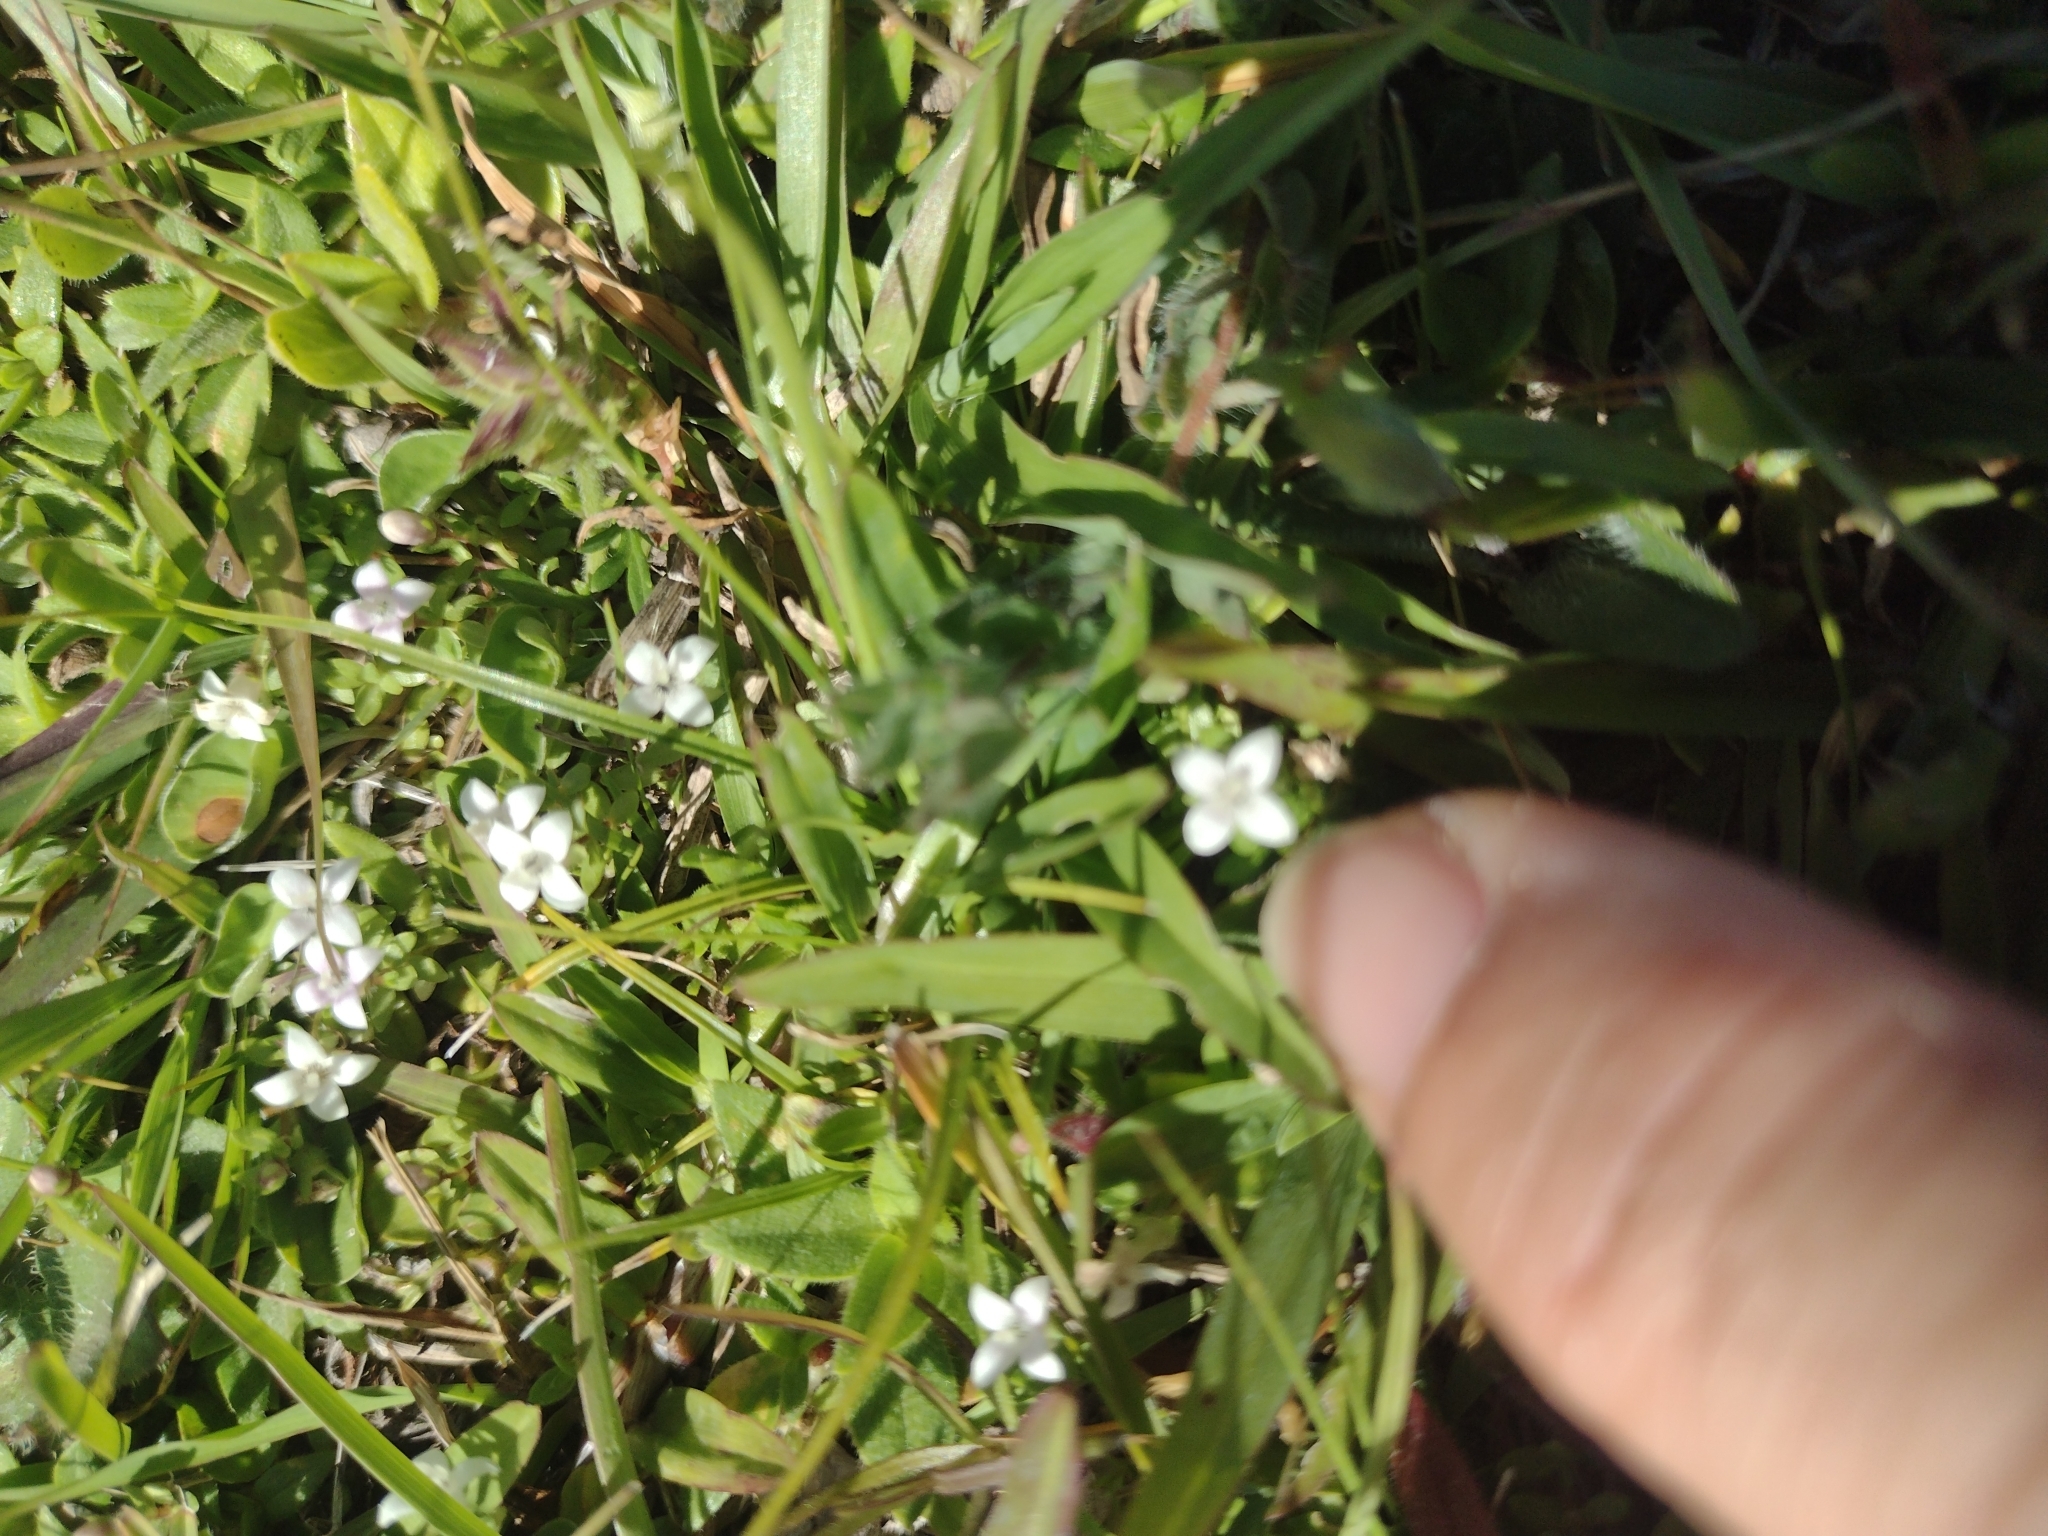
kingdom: Plantae
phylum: Tracheophyta
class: Magnoliopsida
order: Gentianales
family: Rubiaceae
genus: Oldenlandia
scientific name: Oldenlandia salzmannii
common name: Salzmann's mille graines
